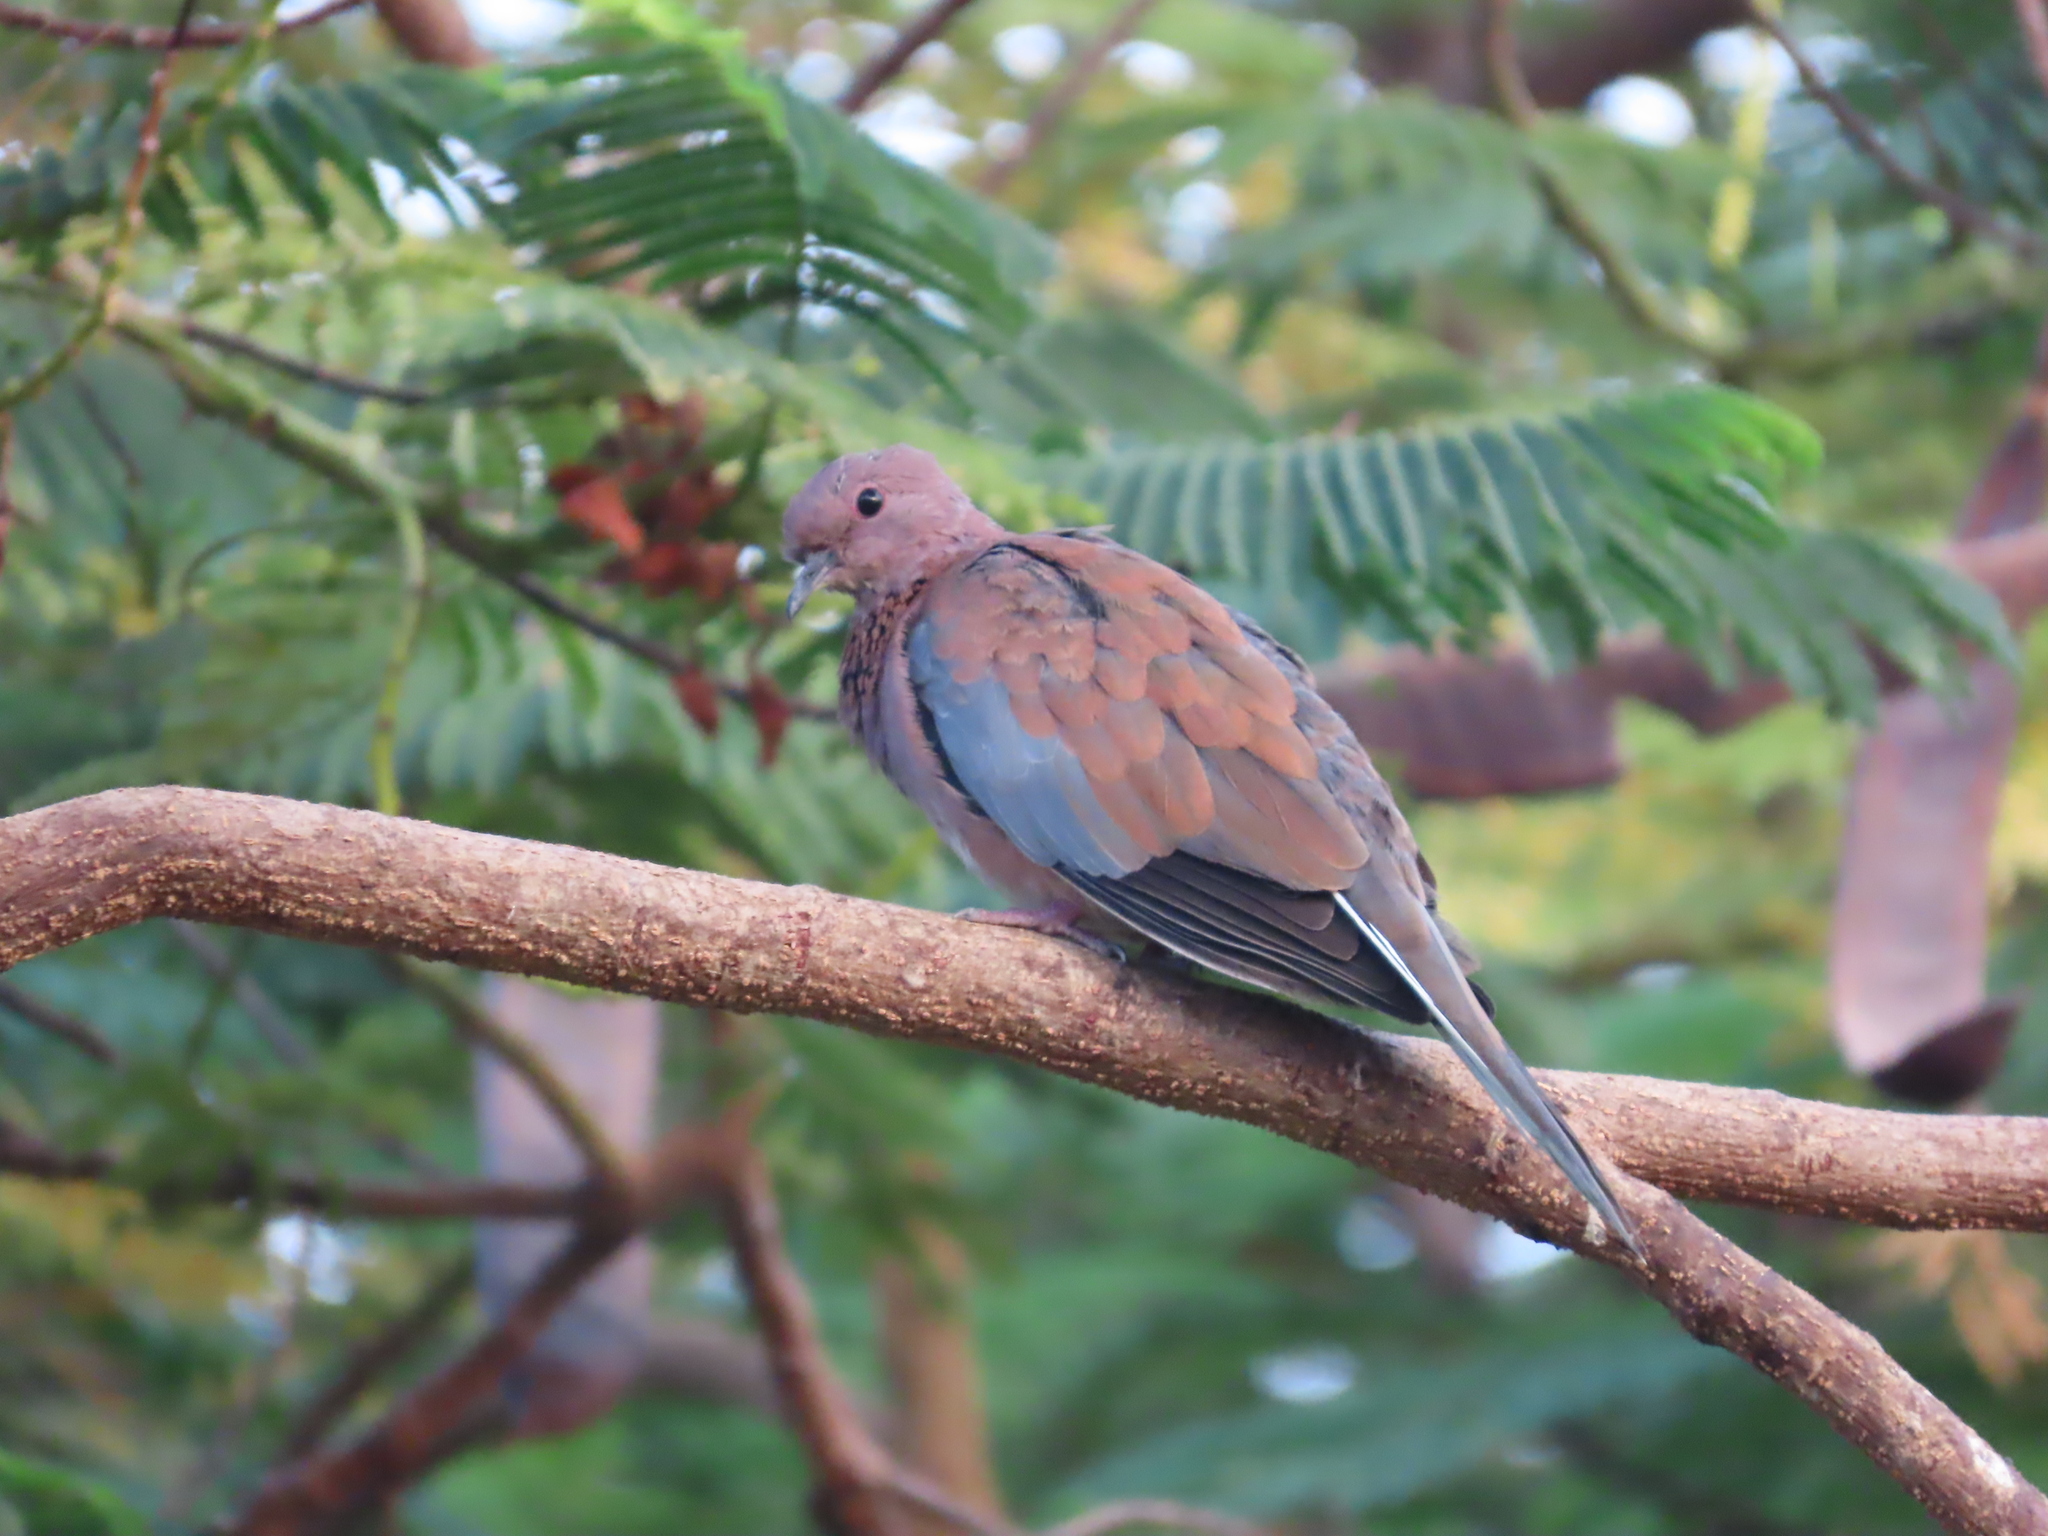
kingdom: Animalia
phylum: Chordata
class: Aves
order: Columbiformes
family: Columbidae
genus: Spilopelia
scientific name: Spilopelia senegalensis
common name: Laughing dove
